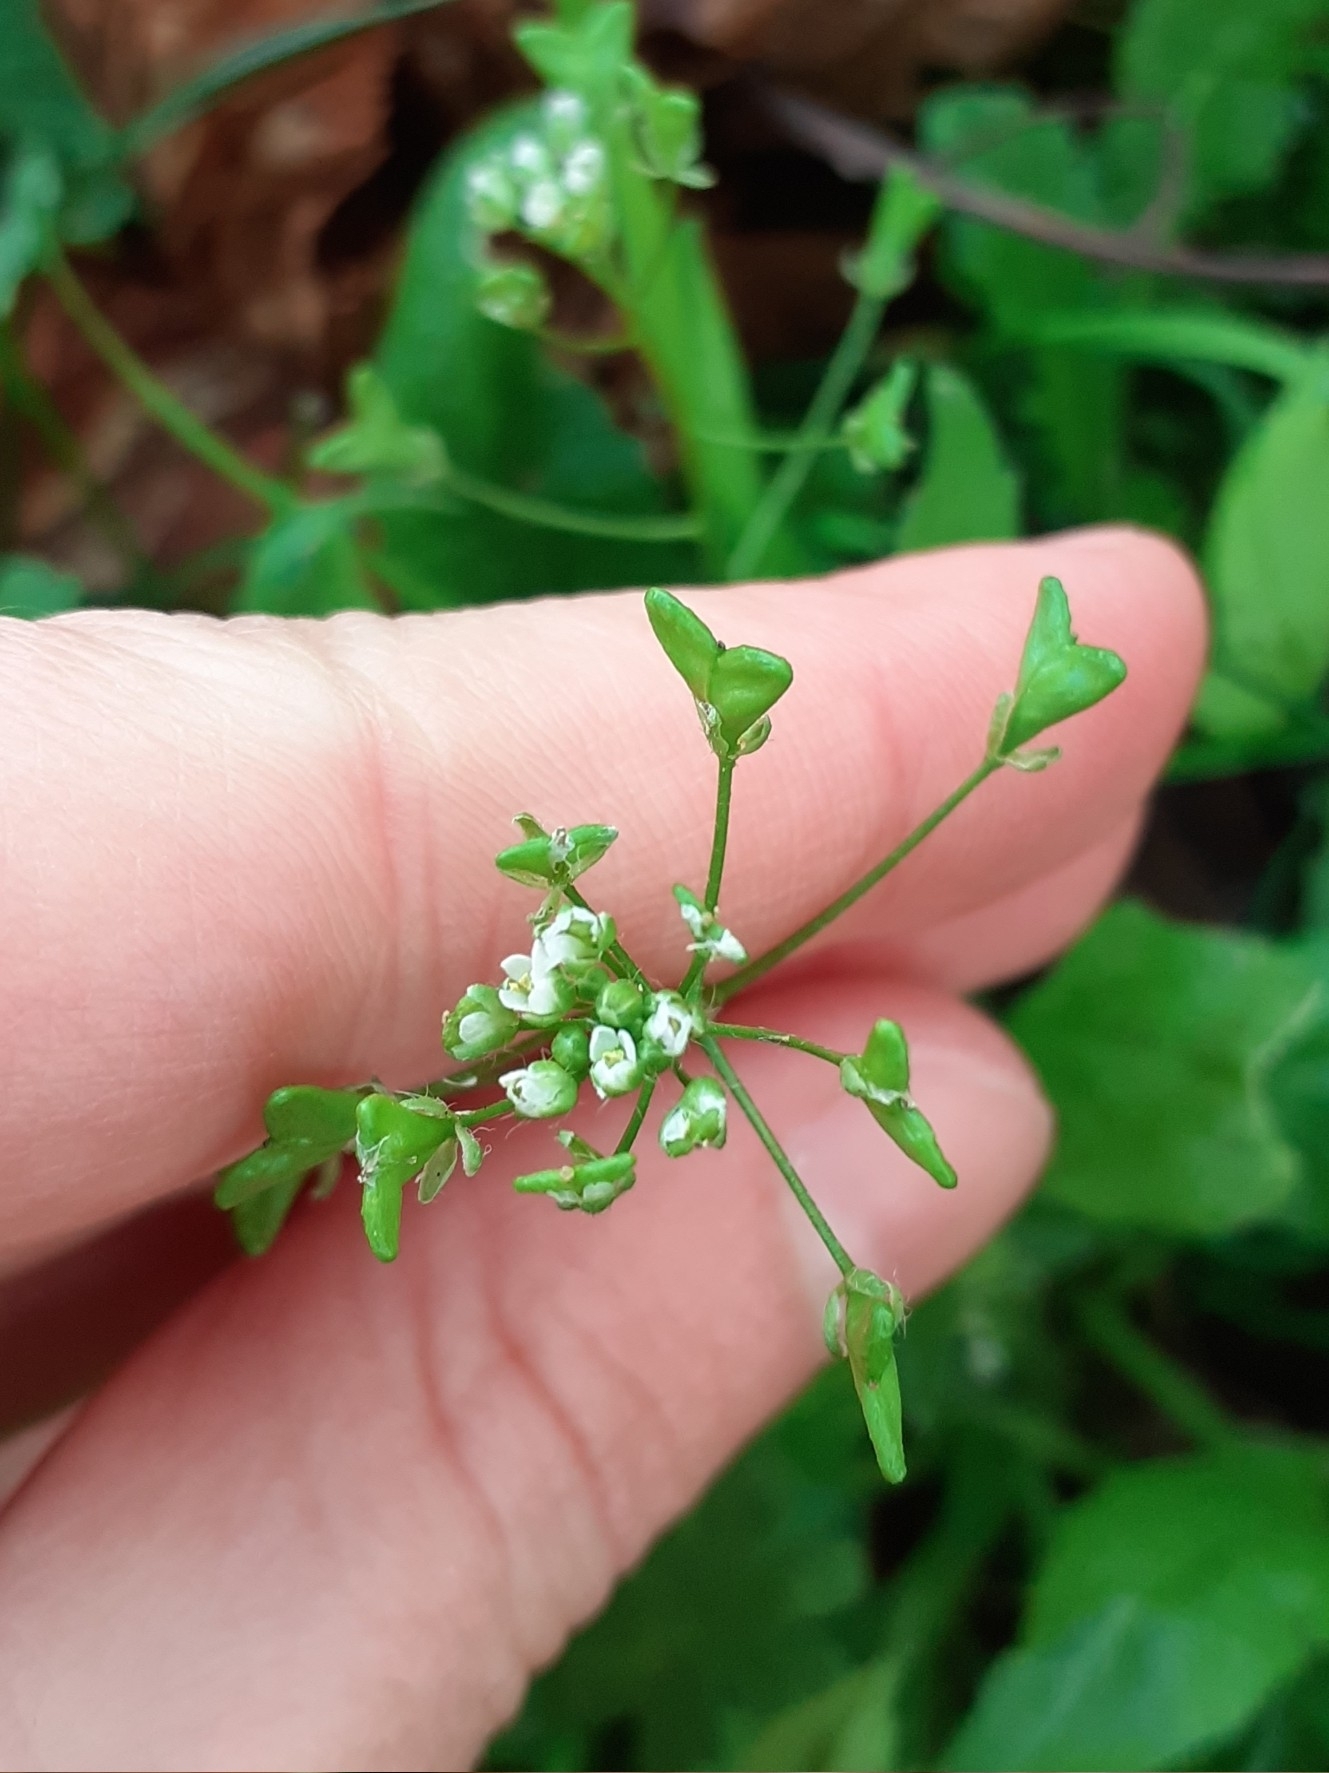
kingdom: Plantae
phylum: Tracheophyta
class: Magnoliopsida
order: Brassicales
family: Brassicaceae
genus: Capsella
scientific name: Capsella bursa-pastoris
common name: Shepherd's purse
